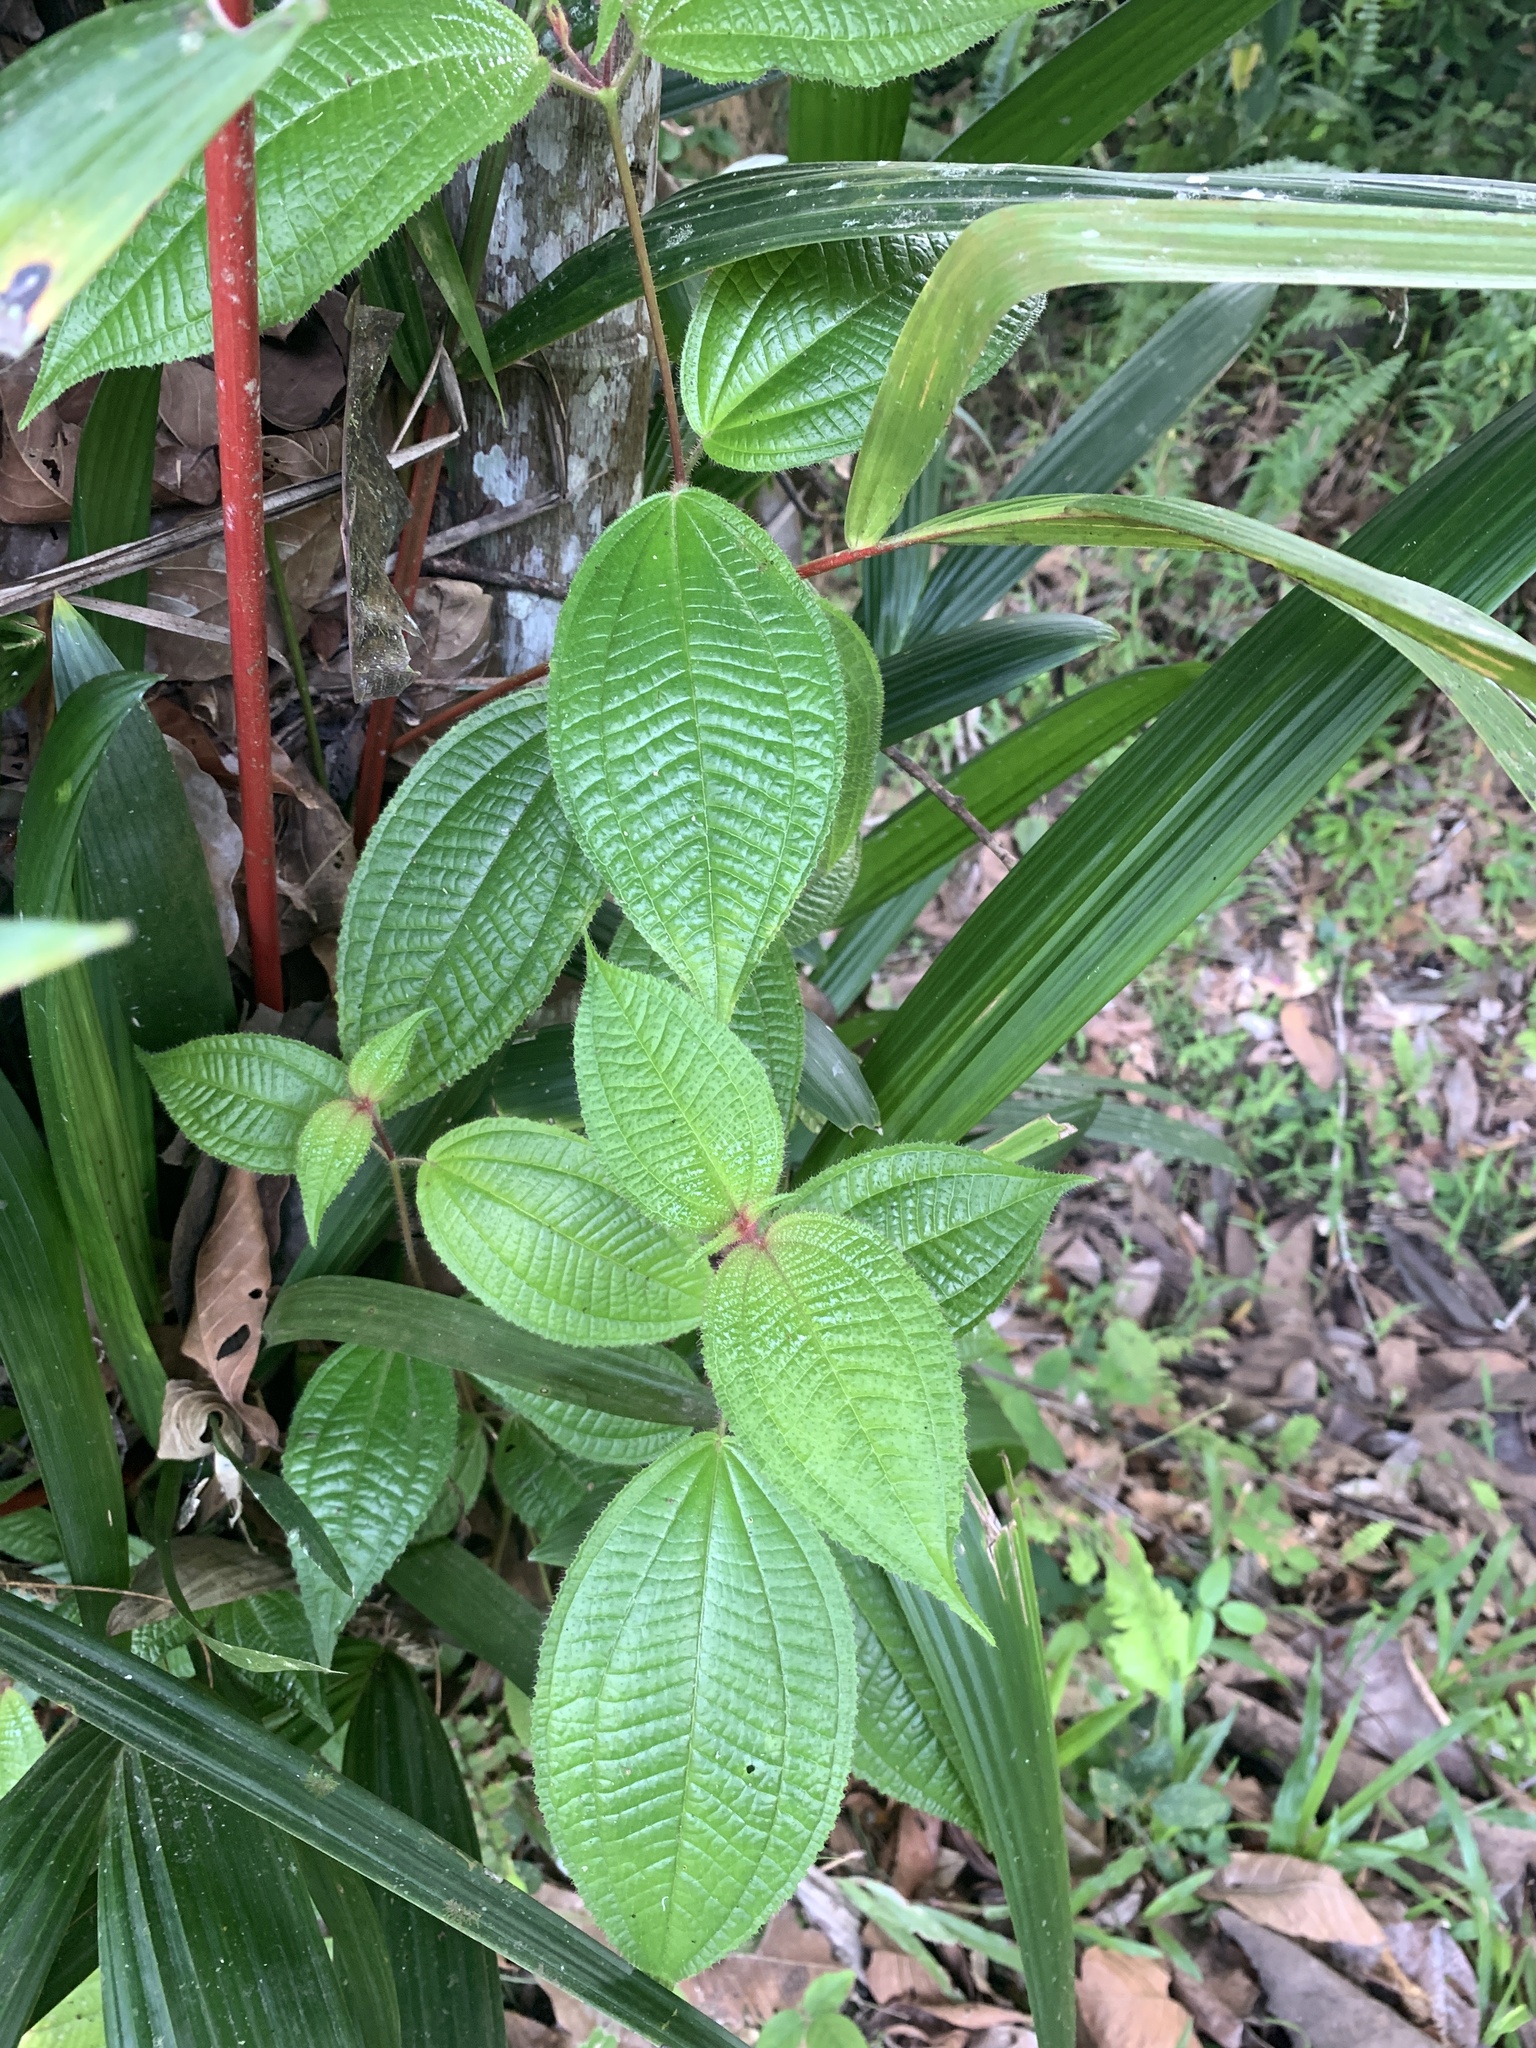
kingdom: Plantae
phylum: Tracheophyta
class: Magnoliopsida
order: Myrtales
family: Melastomataceae
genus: Miconia
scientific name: Miconia crenata
